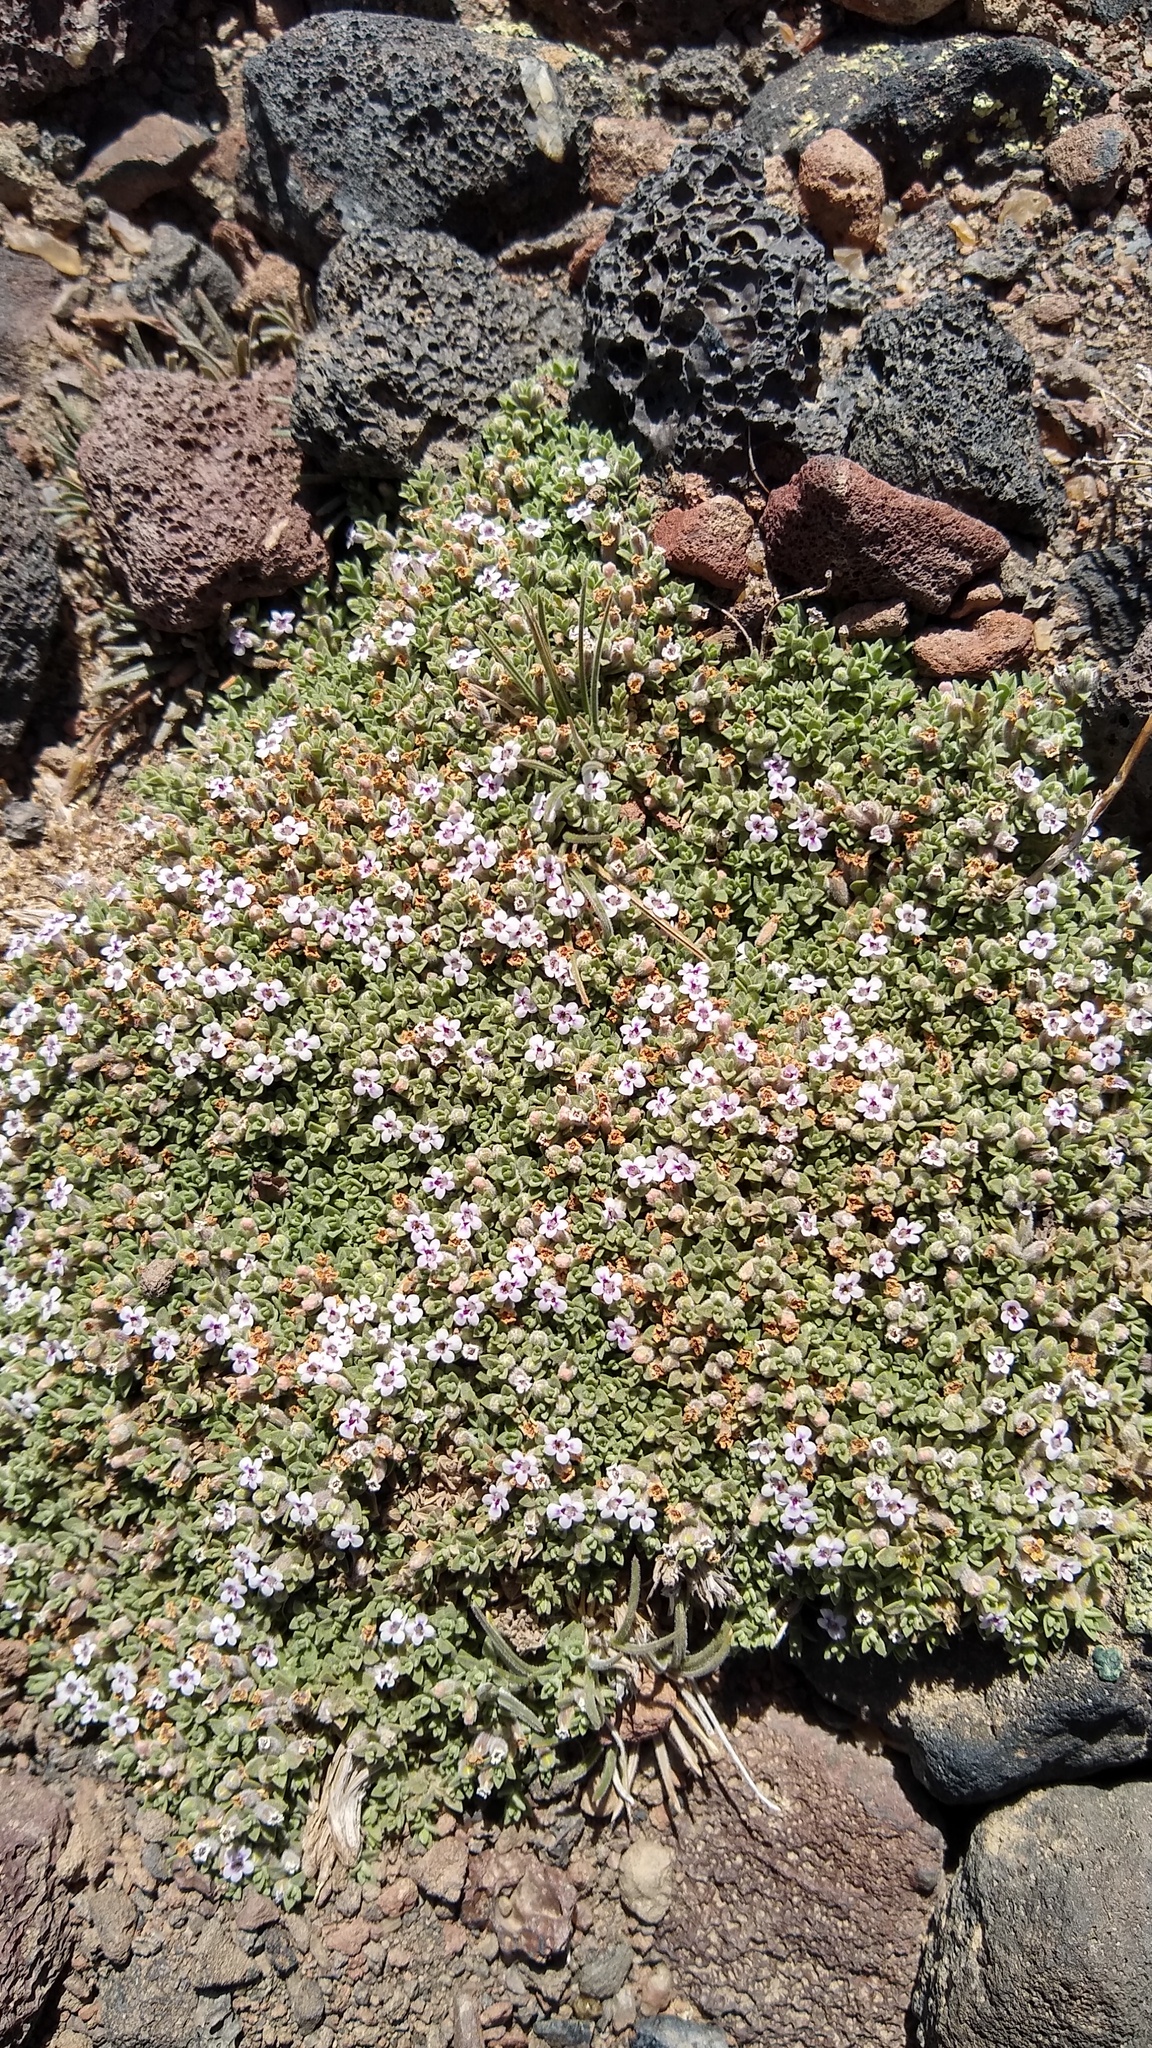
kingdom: Plantae
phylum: Tracheophyta
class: Magnoliopsida
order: Lamiales
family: Lamiaceae
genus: Clinopodium
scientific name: Clinopodium darwinii
